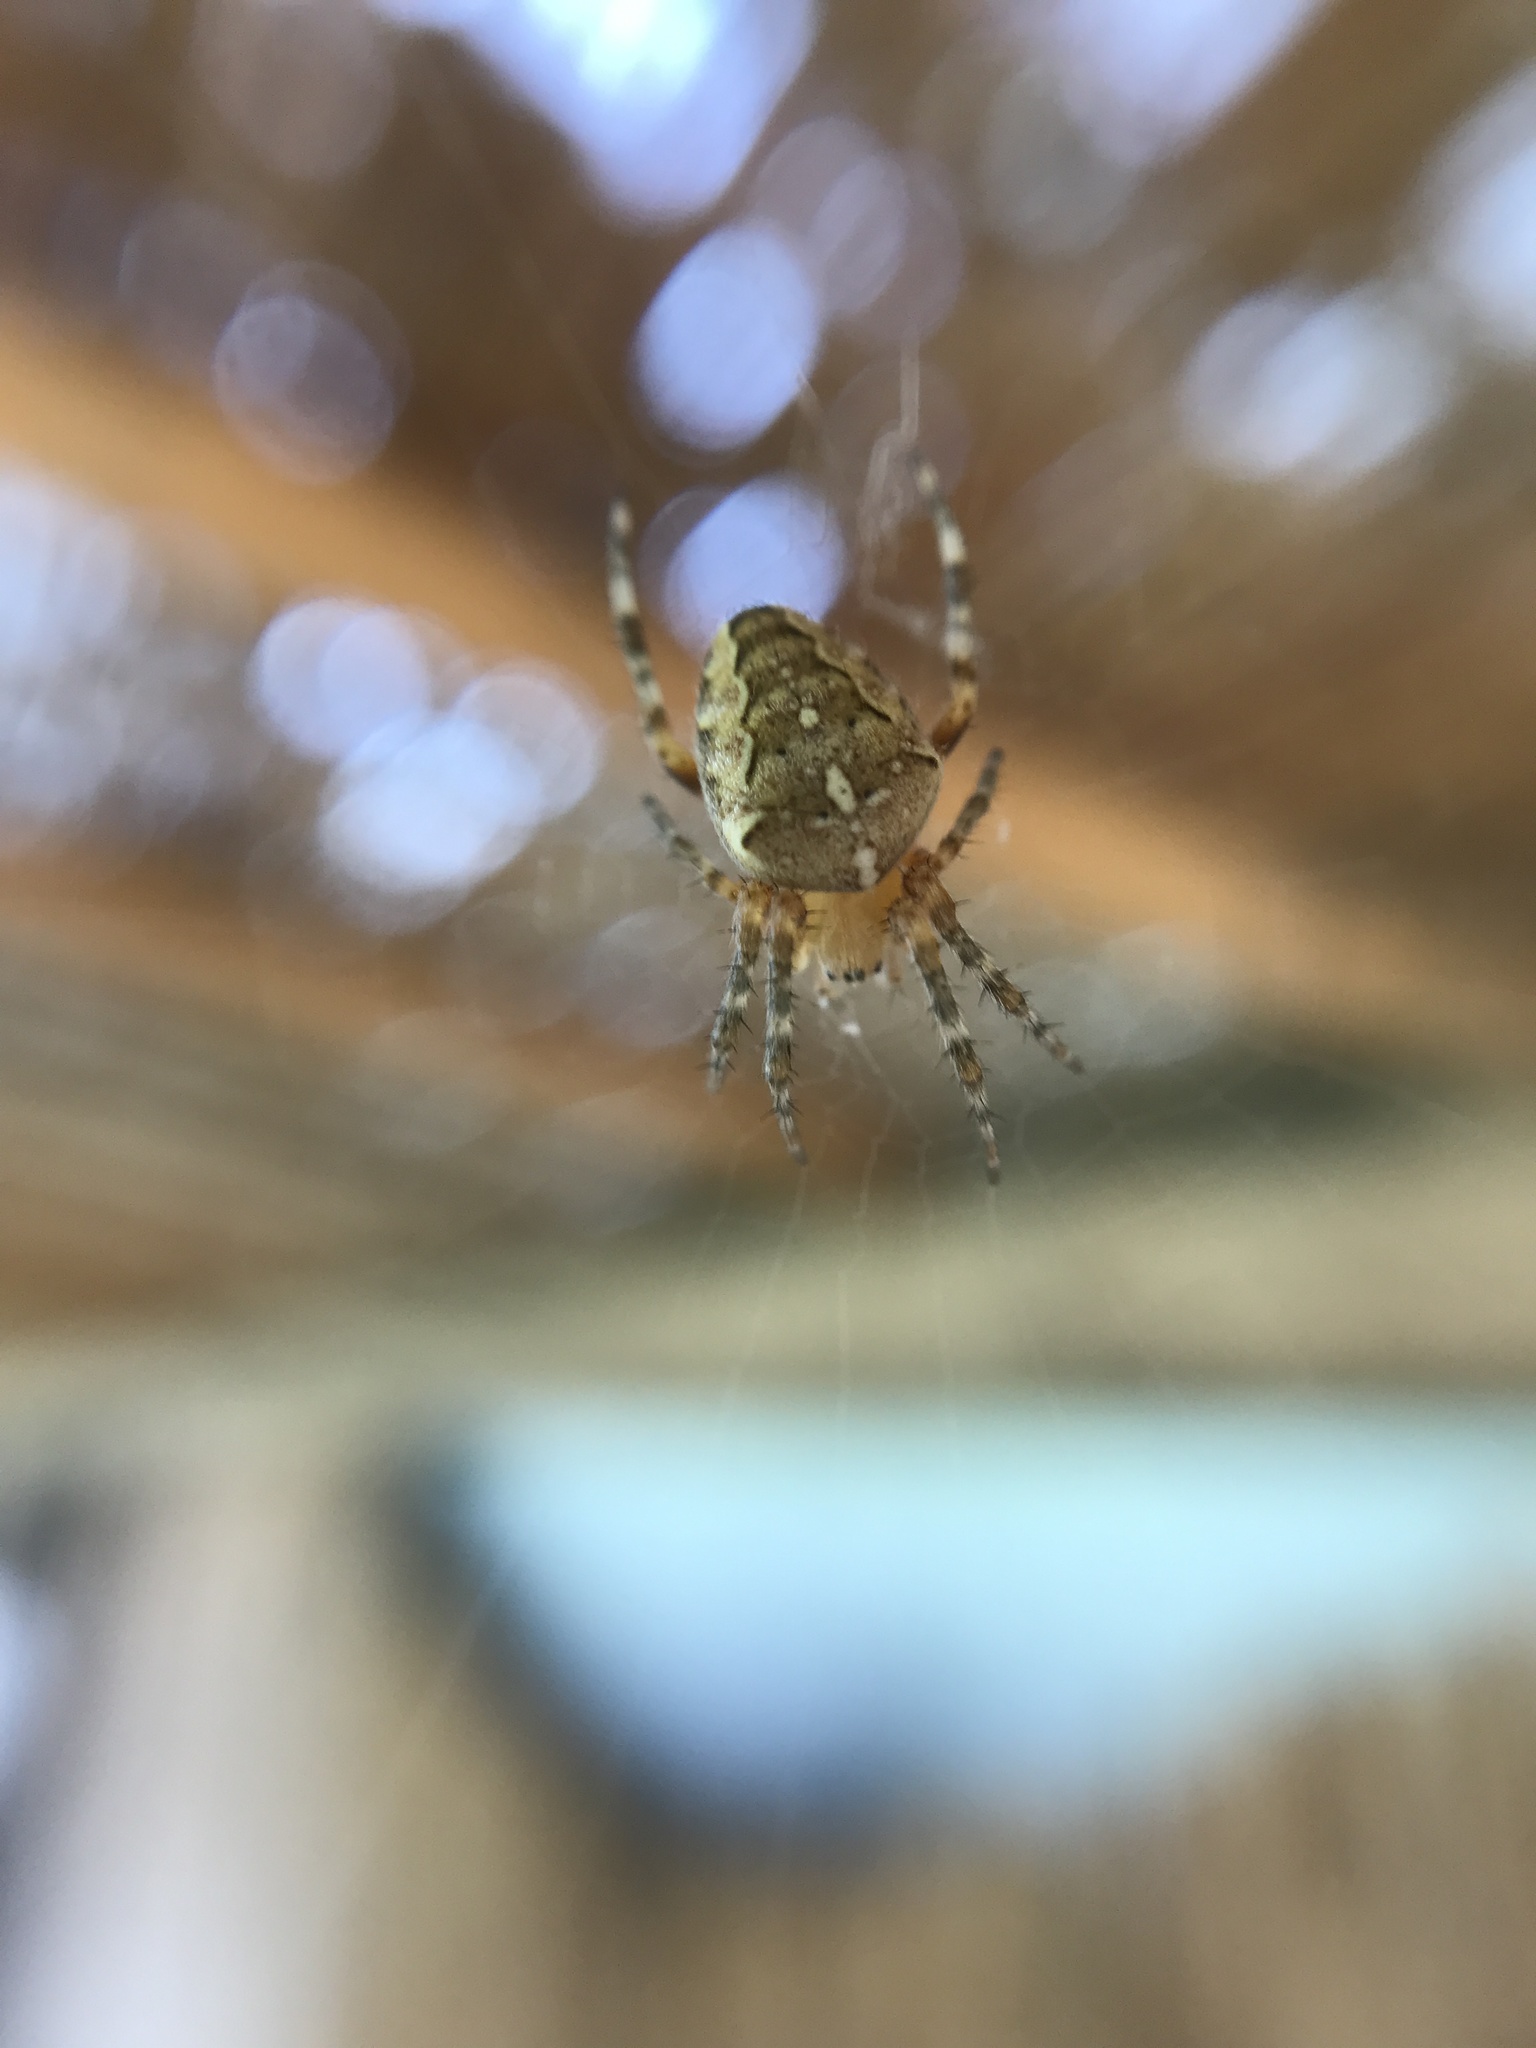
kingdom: Animalia
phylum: Arthropoda
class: Arachnida
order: Araneae
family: Araneidae
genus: Araneus
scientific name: Araneus diadematus
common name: Cross orbweaver
